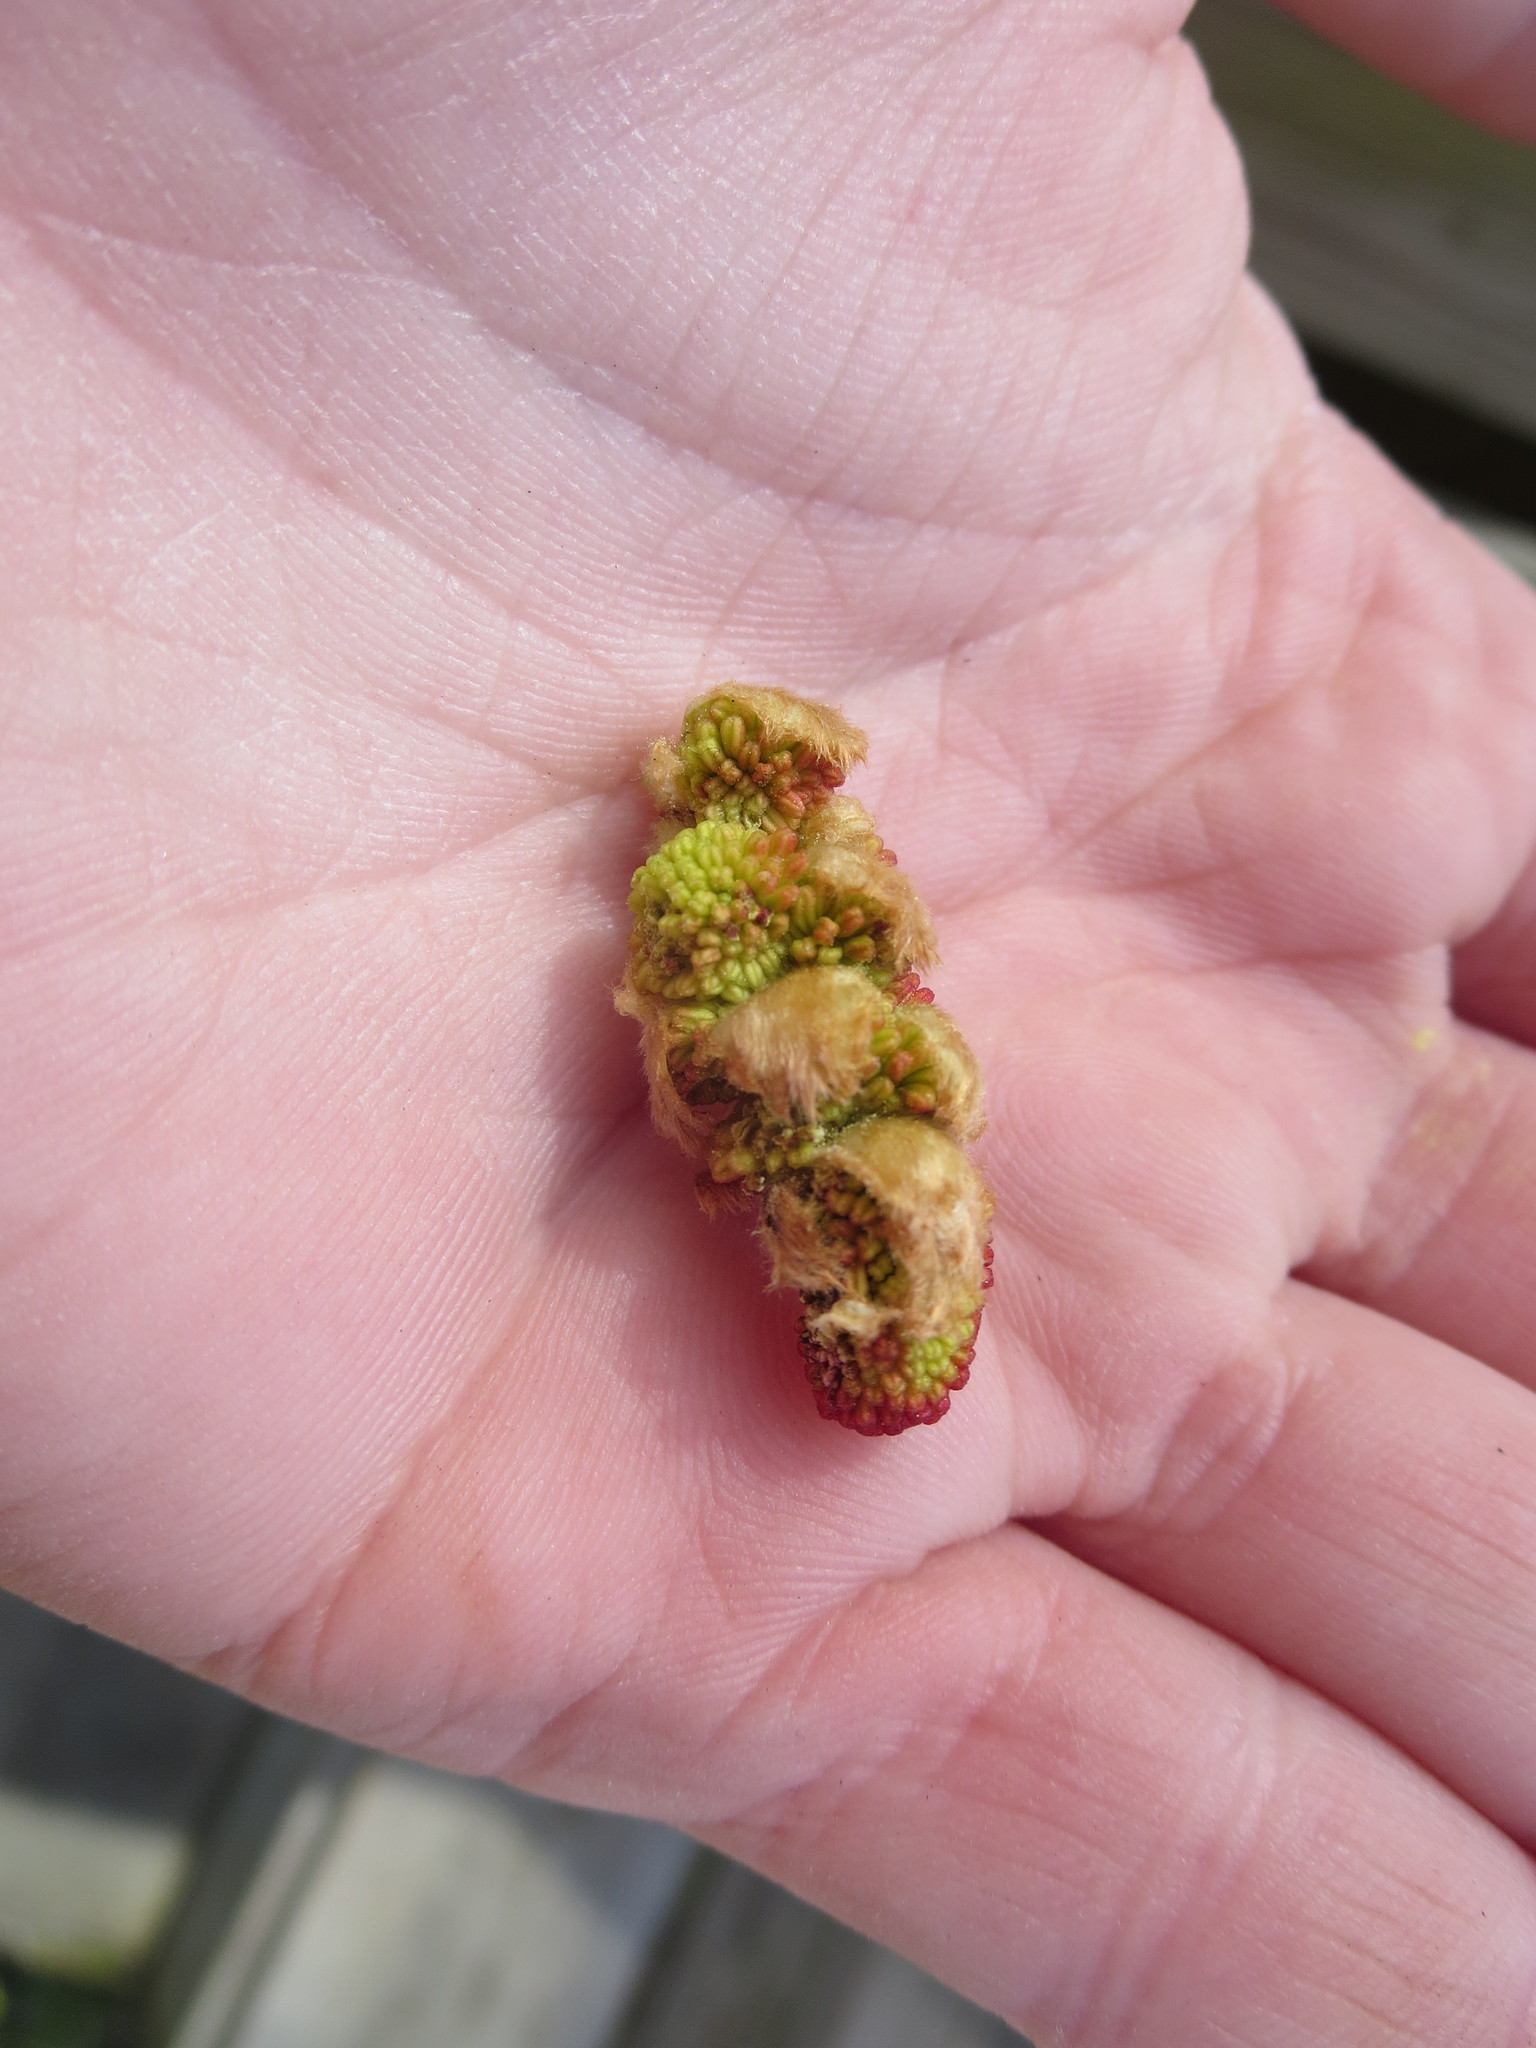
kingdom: Plantae
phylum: Tracheophyta
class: Magnoliopsida
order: Saxifragales
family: Altingiaceae
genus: Liquidambar
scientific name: Liquidambar styraciflua
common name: Sweet gum
